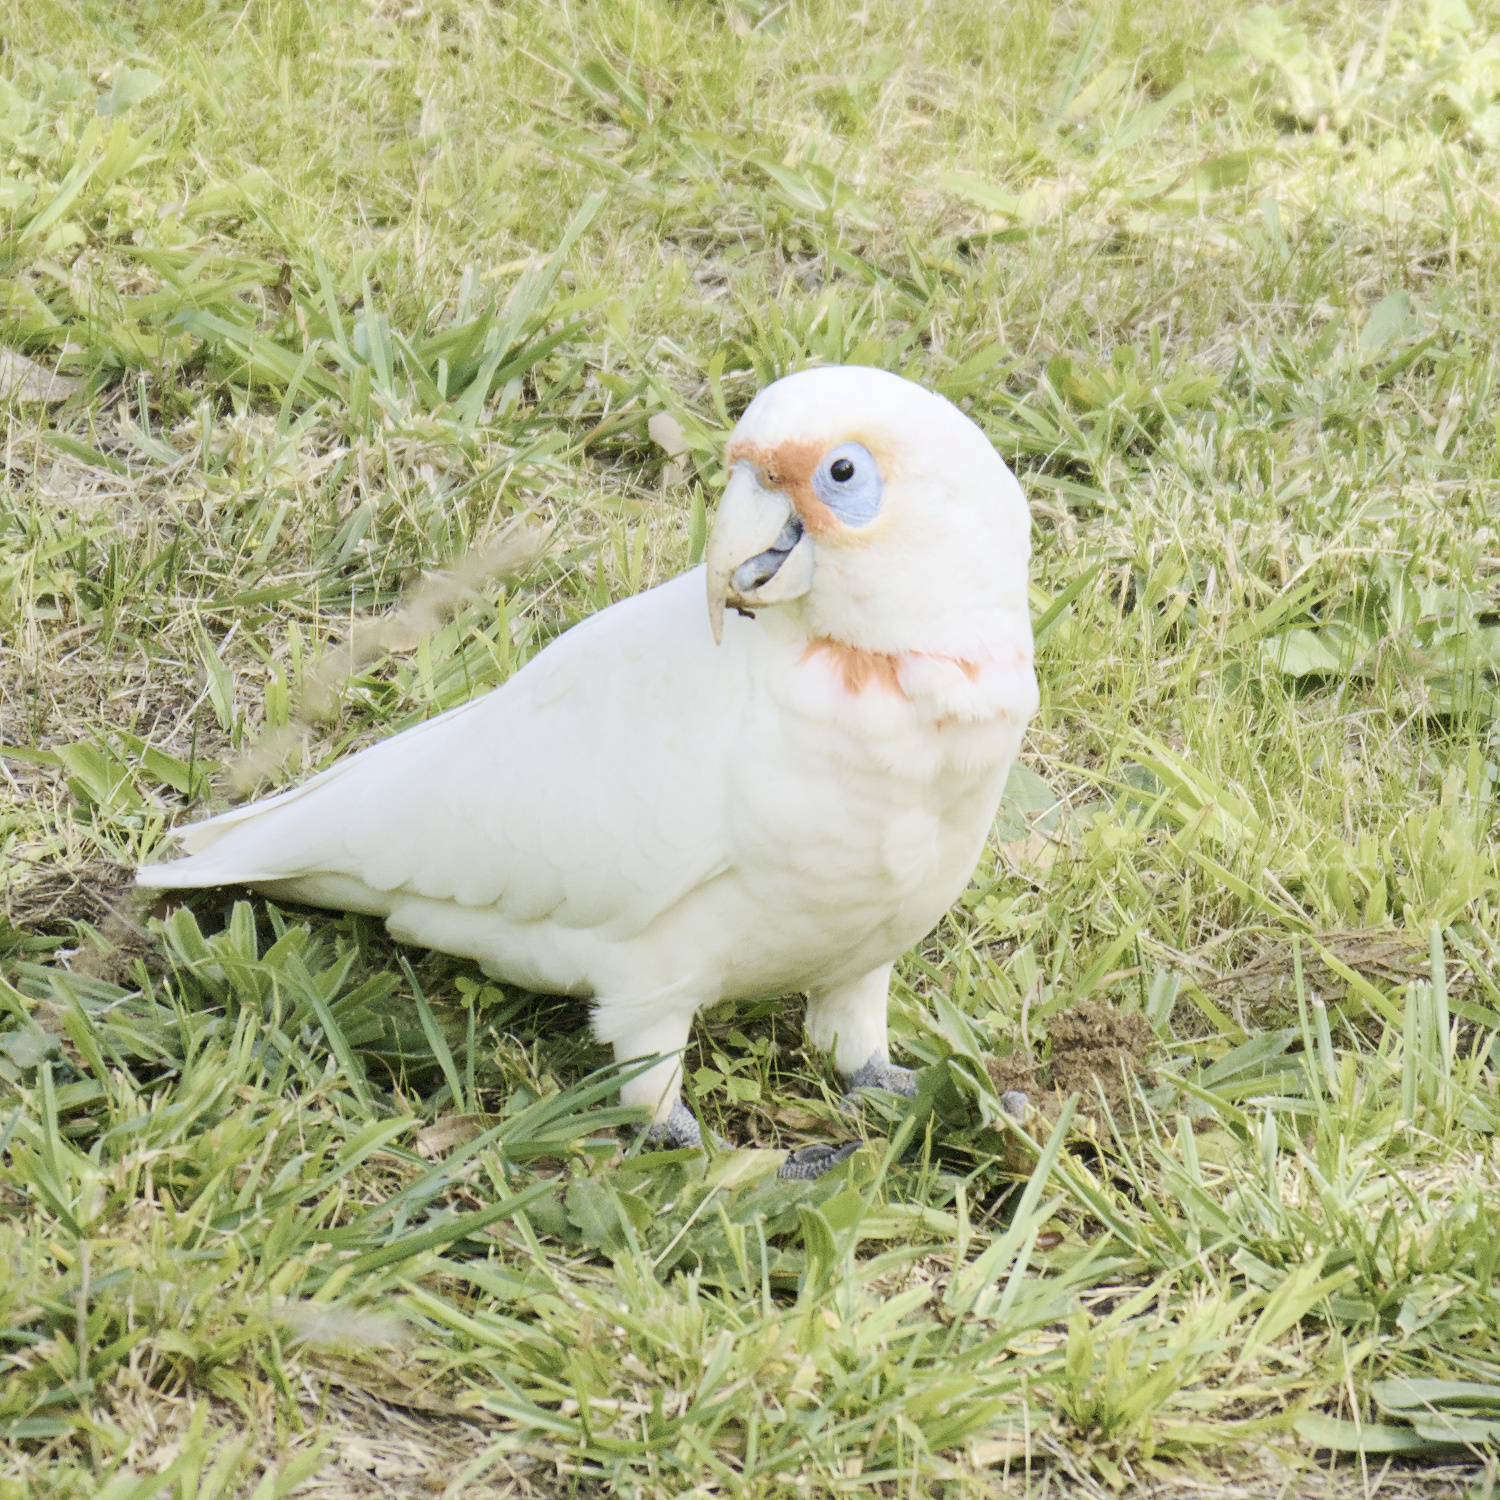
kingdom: Animalia
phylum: Chordata
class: Aves
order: Psittaciformes
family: Psittacidae
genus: Cacatua
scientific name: Cacatua tenuirostris
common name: Long-billed corella
